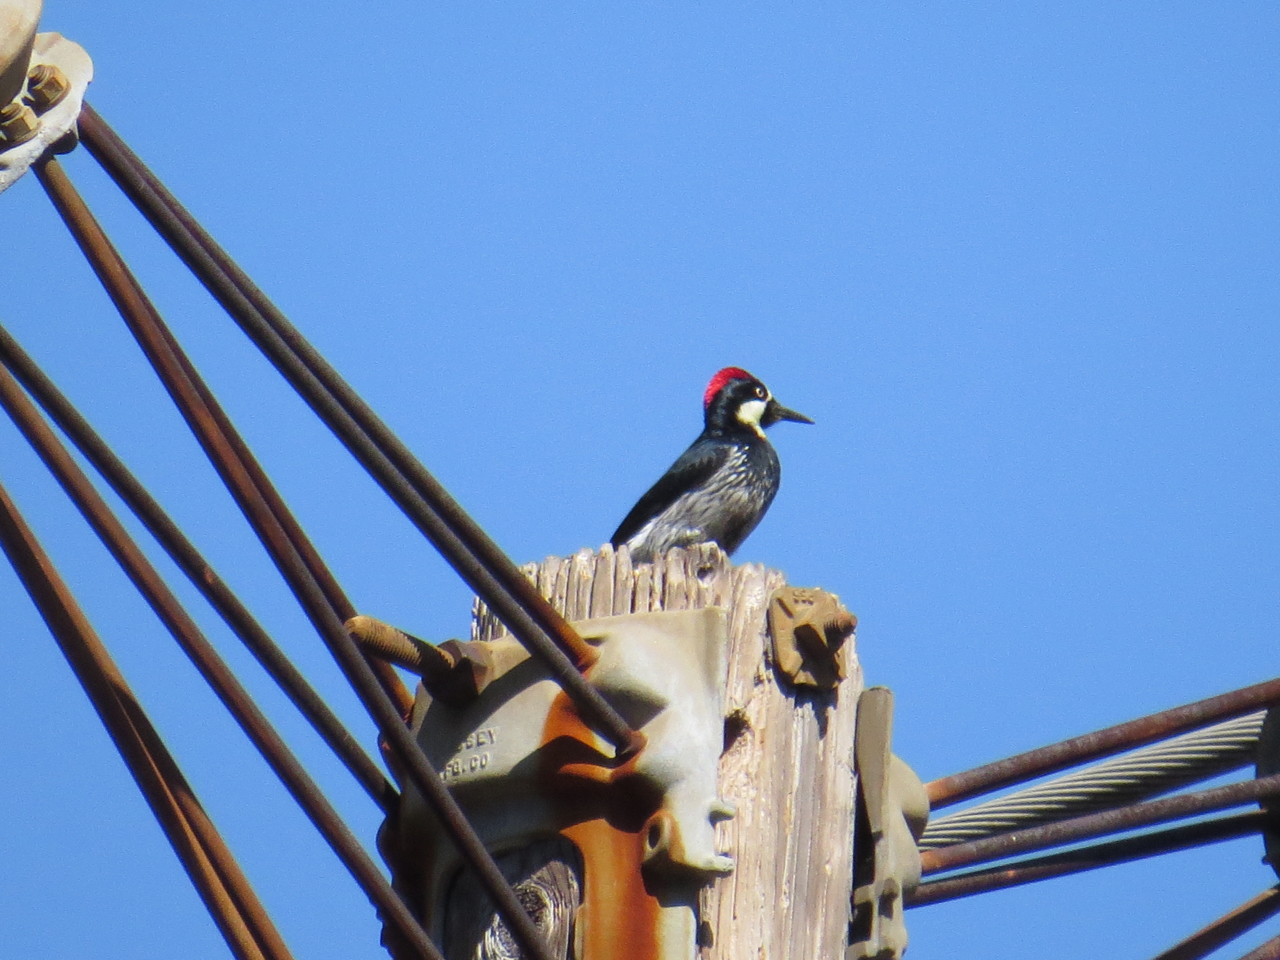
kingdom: Animalia
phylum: Chordata
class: Aves
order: Piciformes
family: Picidae
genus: Melanerpes
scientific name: Melanerpes formicivorus
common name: Acorn woodpecker
